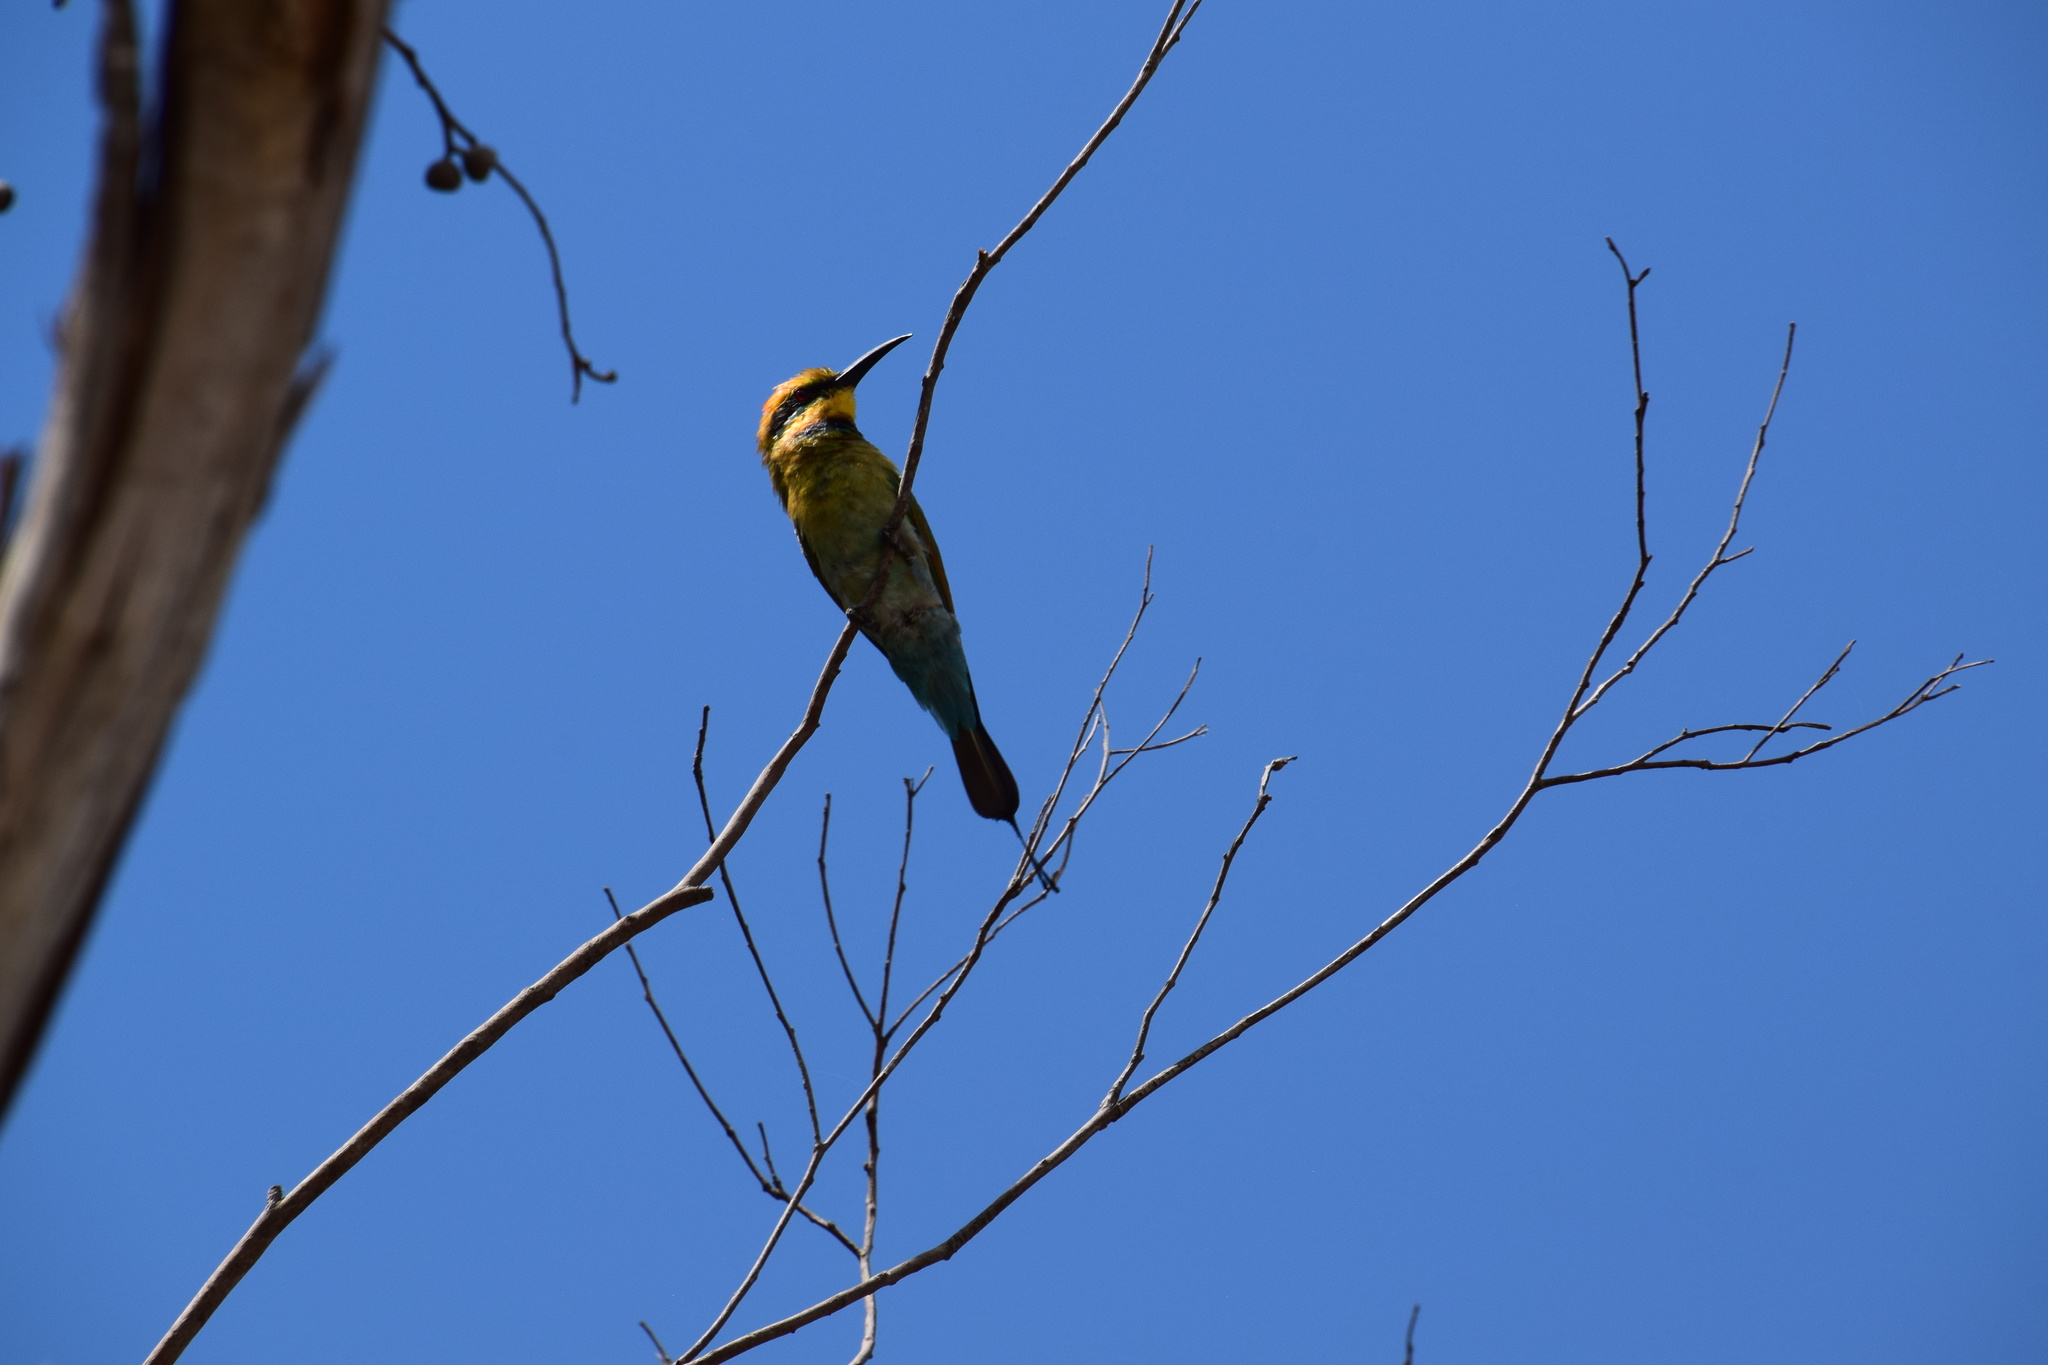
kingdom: Animalia
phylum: Chordata
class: Aves
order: Coraciiformes
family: Meropidae
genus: Merops
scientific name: Merops ornatus
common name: Rainbow bee-eater
